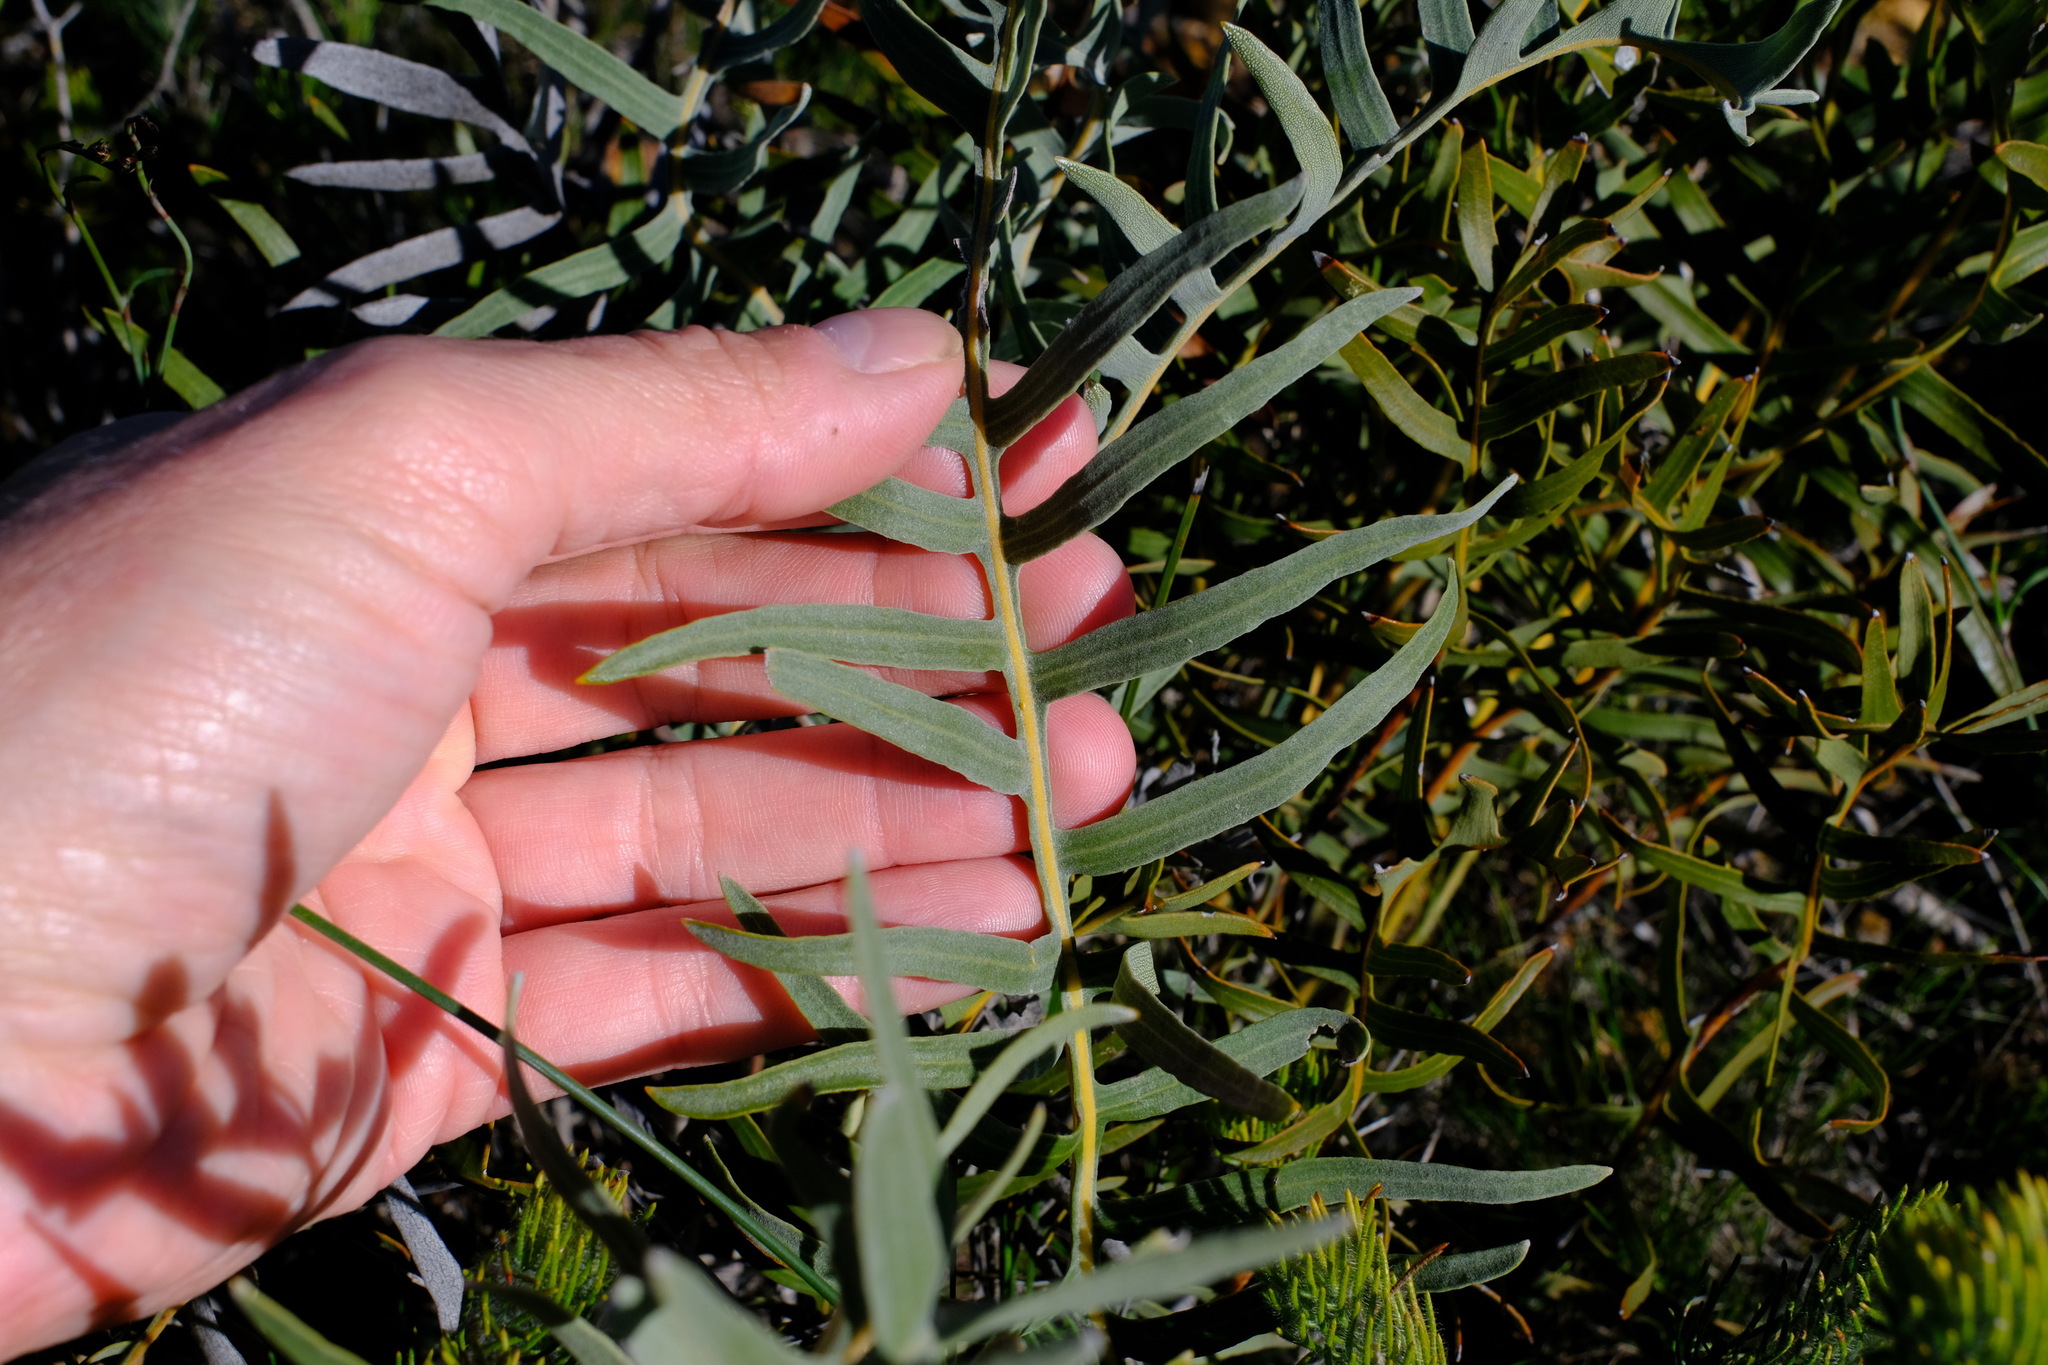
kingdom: Plantae
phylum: Tracheophyta
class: Magnoliopsida
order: Proteales
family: Proteaceae
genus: Banksia
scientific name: Banksia chamaephyton
